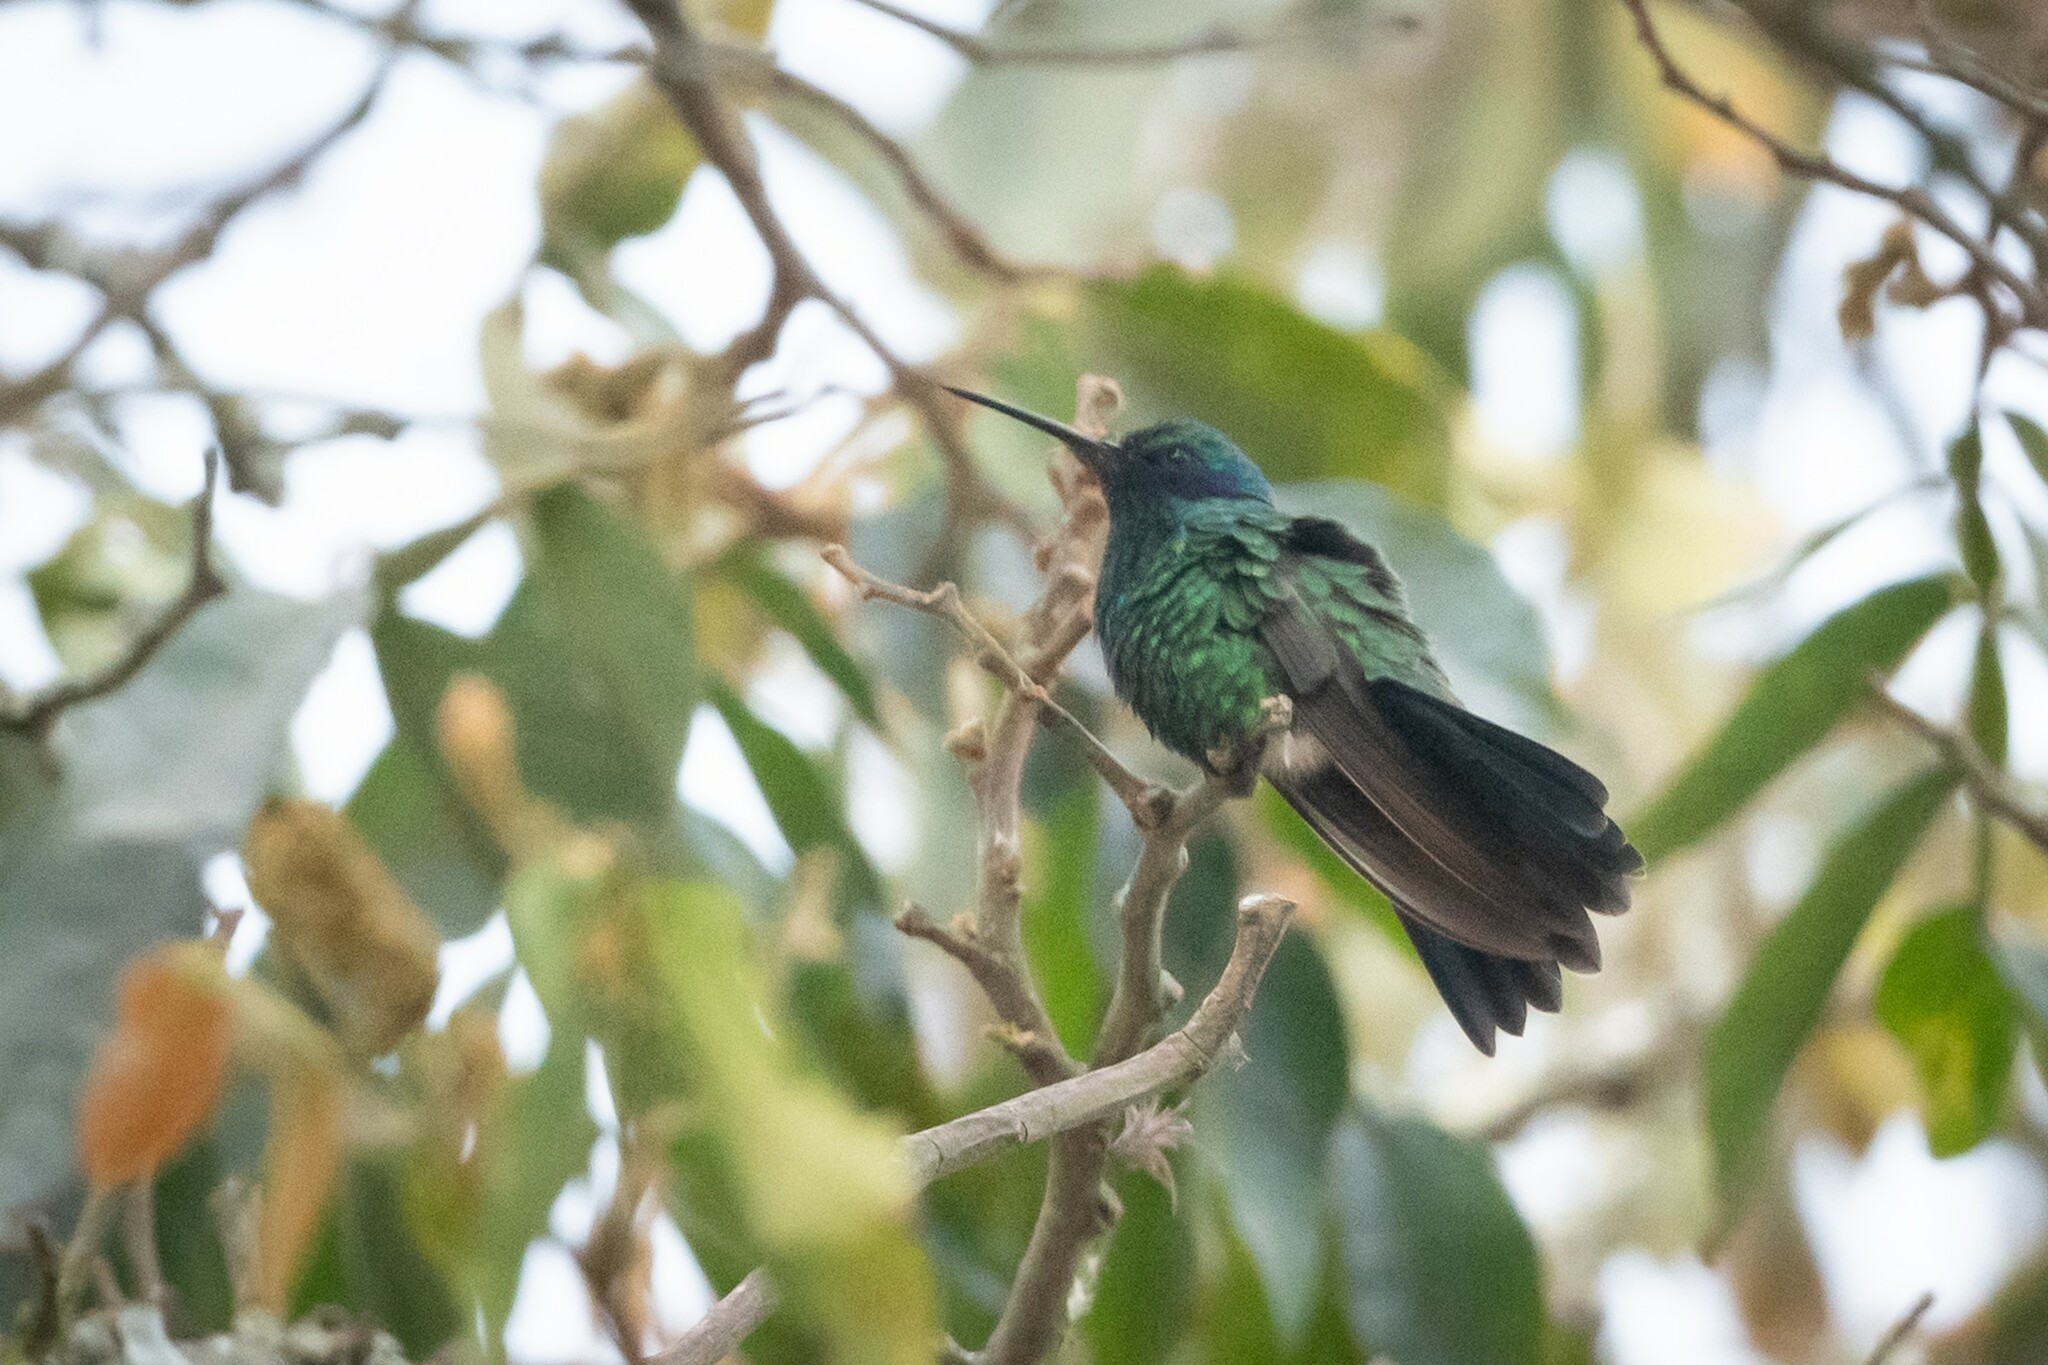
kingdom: Animalia
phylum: Chordata
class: Aves
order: Apodiformes
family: Trochilidae
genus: Colibri
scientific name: Colibri coruscans
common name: Sparkling violetear
